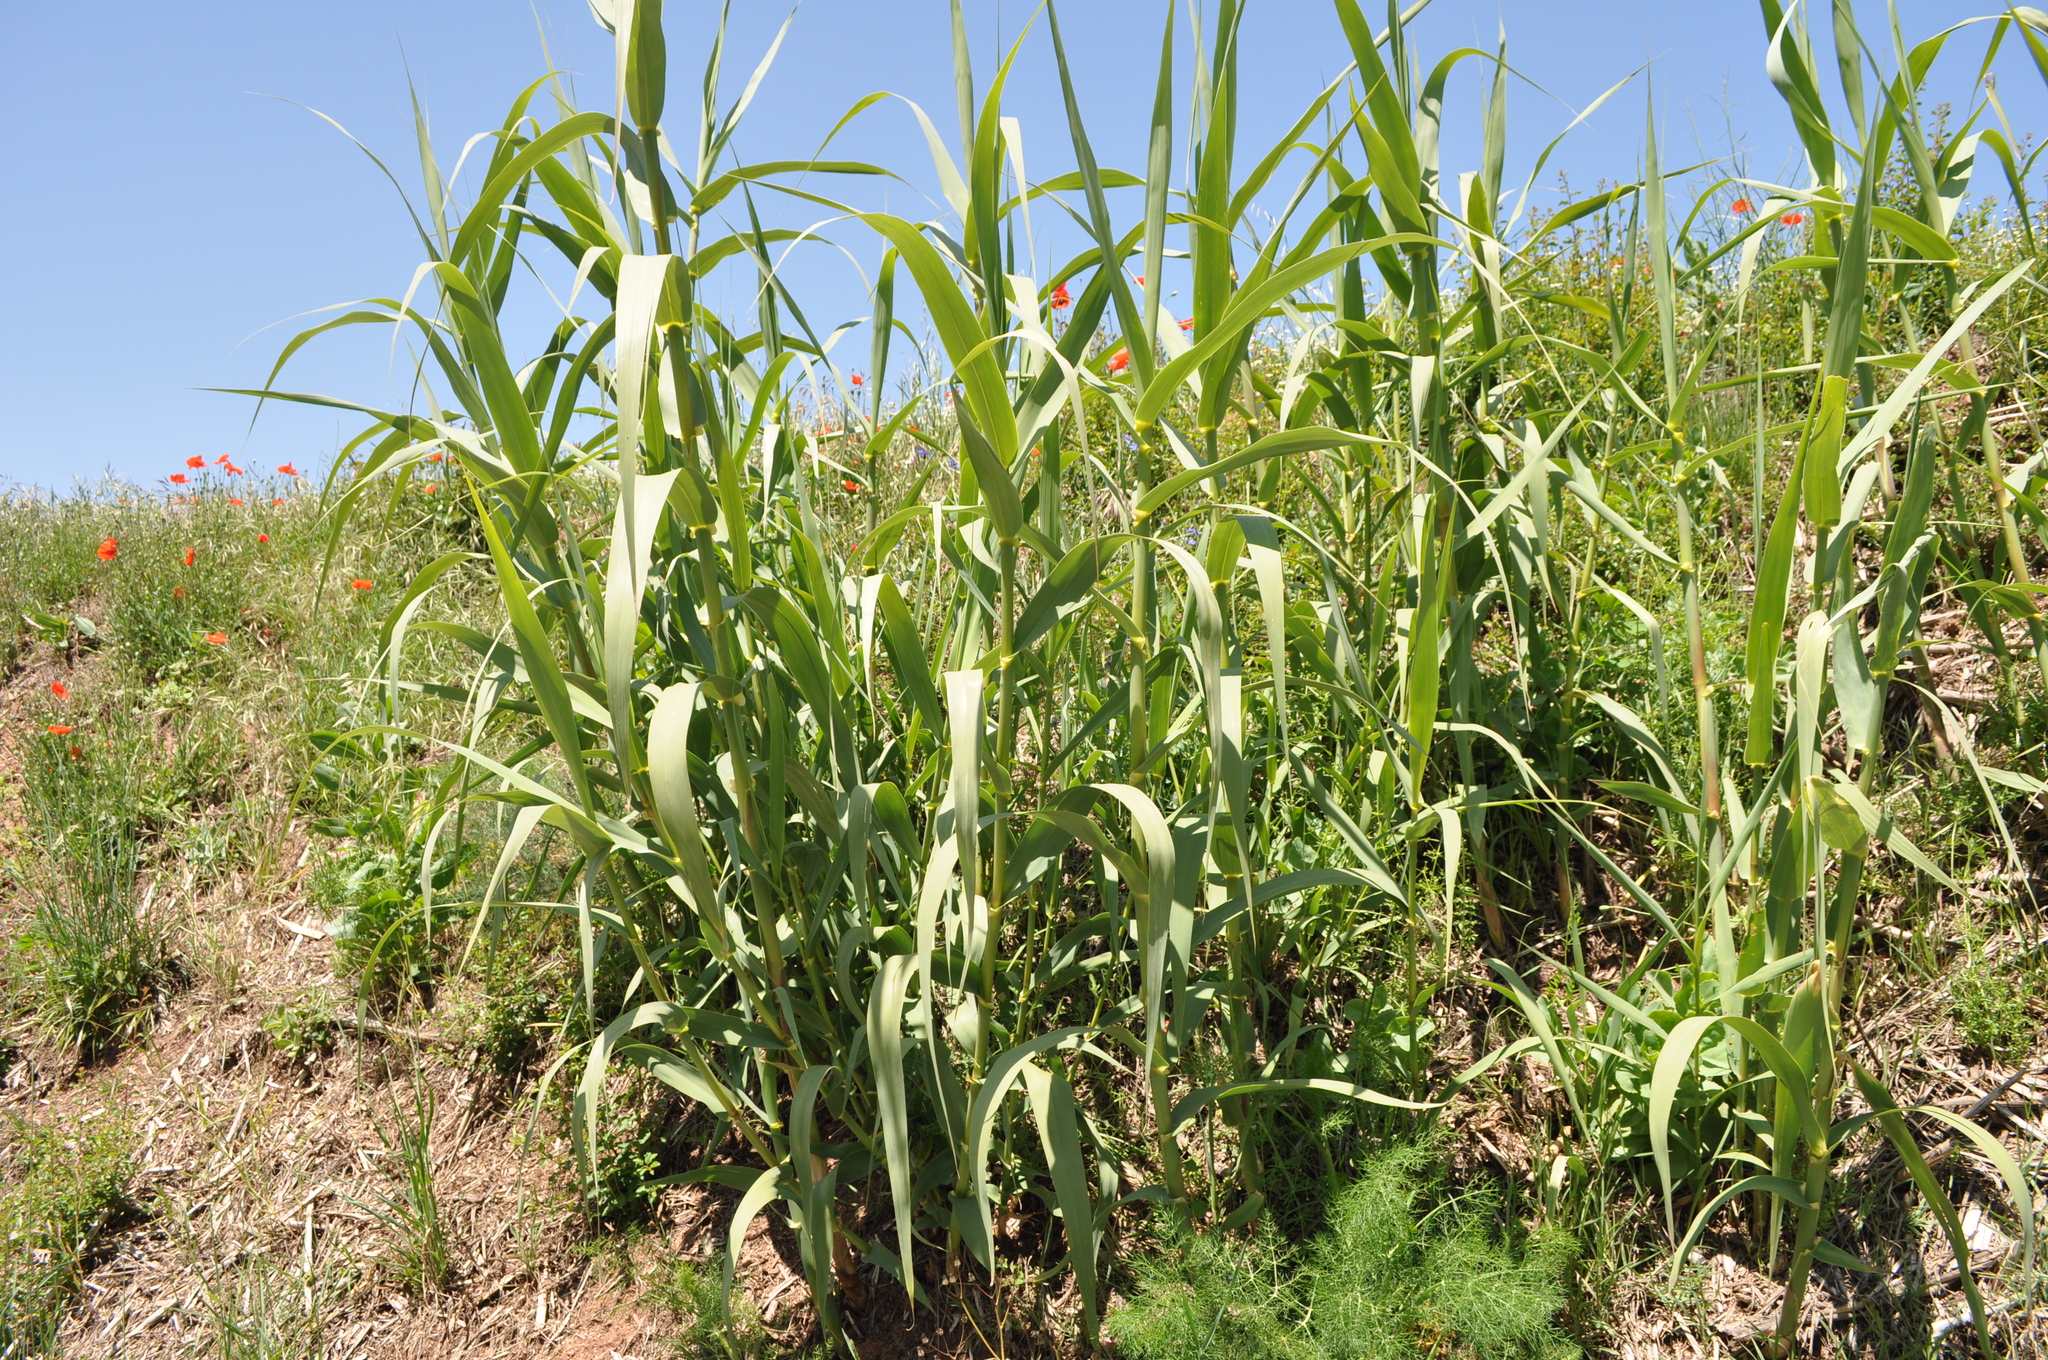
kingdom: Plantae
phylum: Tracheophyta
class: Liliopsida
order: Poales
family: Poaceae
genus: Arundo
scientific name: Arundo donax
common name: Giant reed
